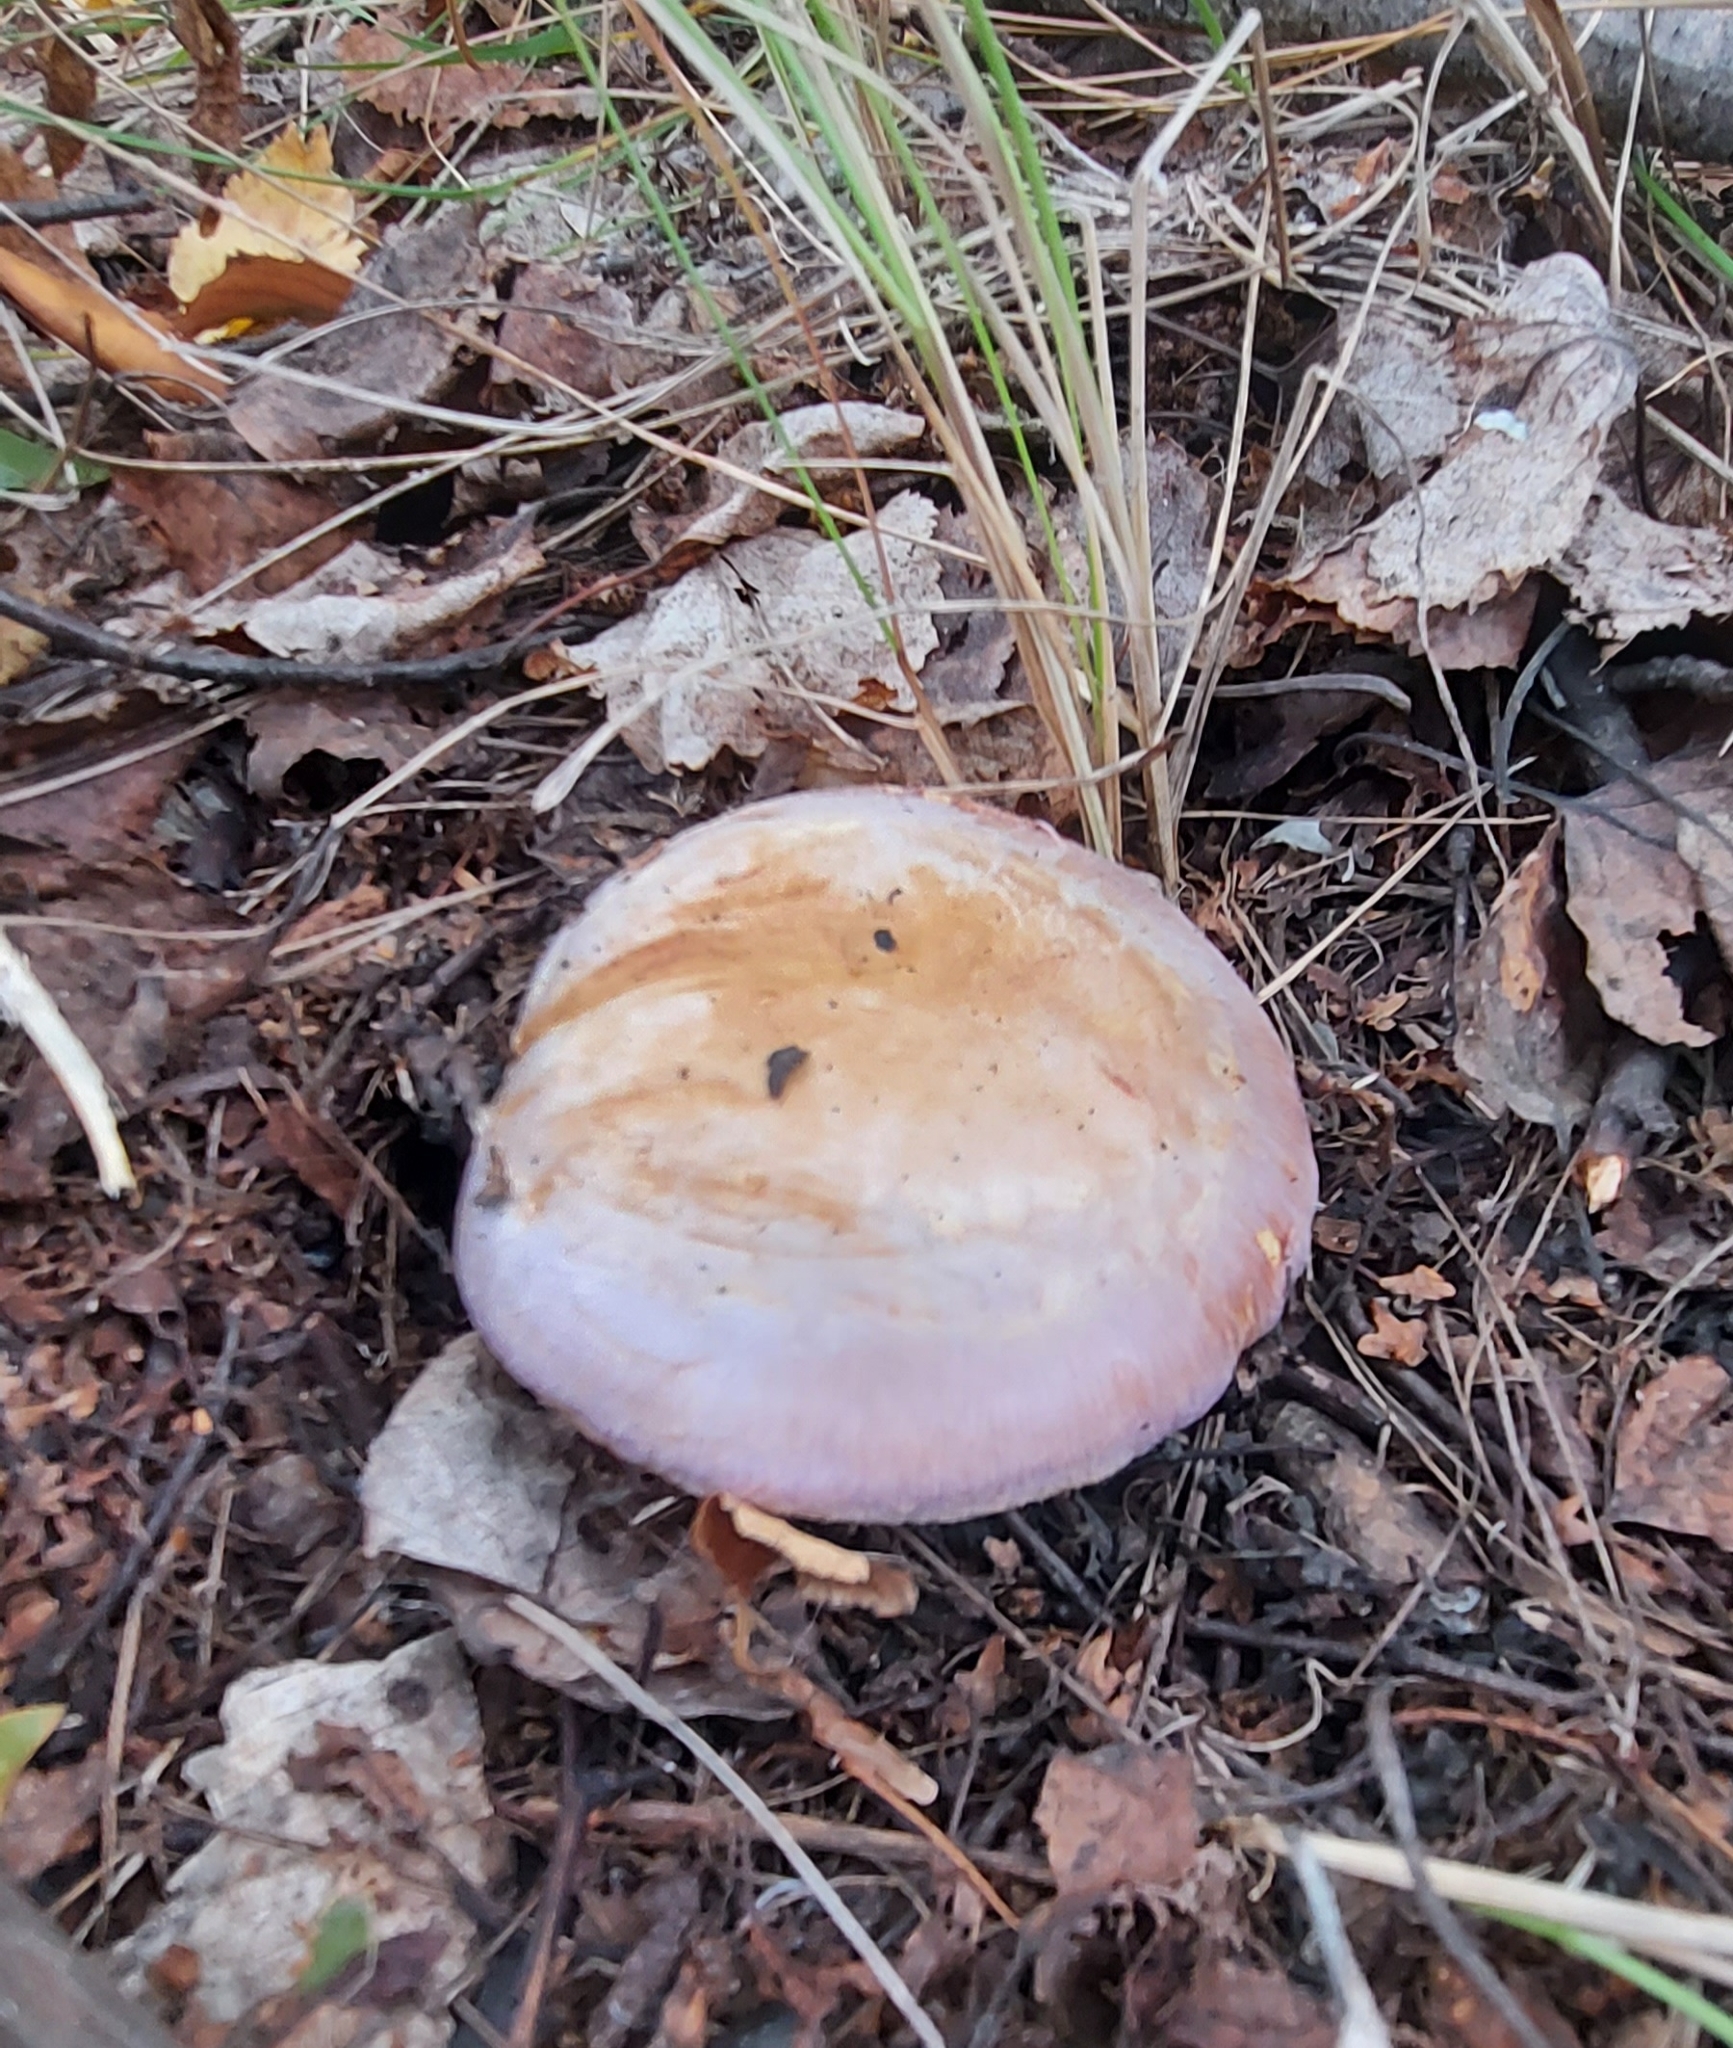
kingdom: Fungi
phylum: Basidiomycota
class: Agaricomycetes
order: Agaricales
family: Tricholomataceae
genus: Collybia
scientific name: Collybia
